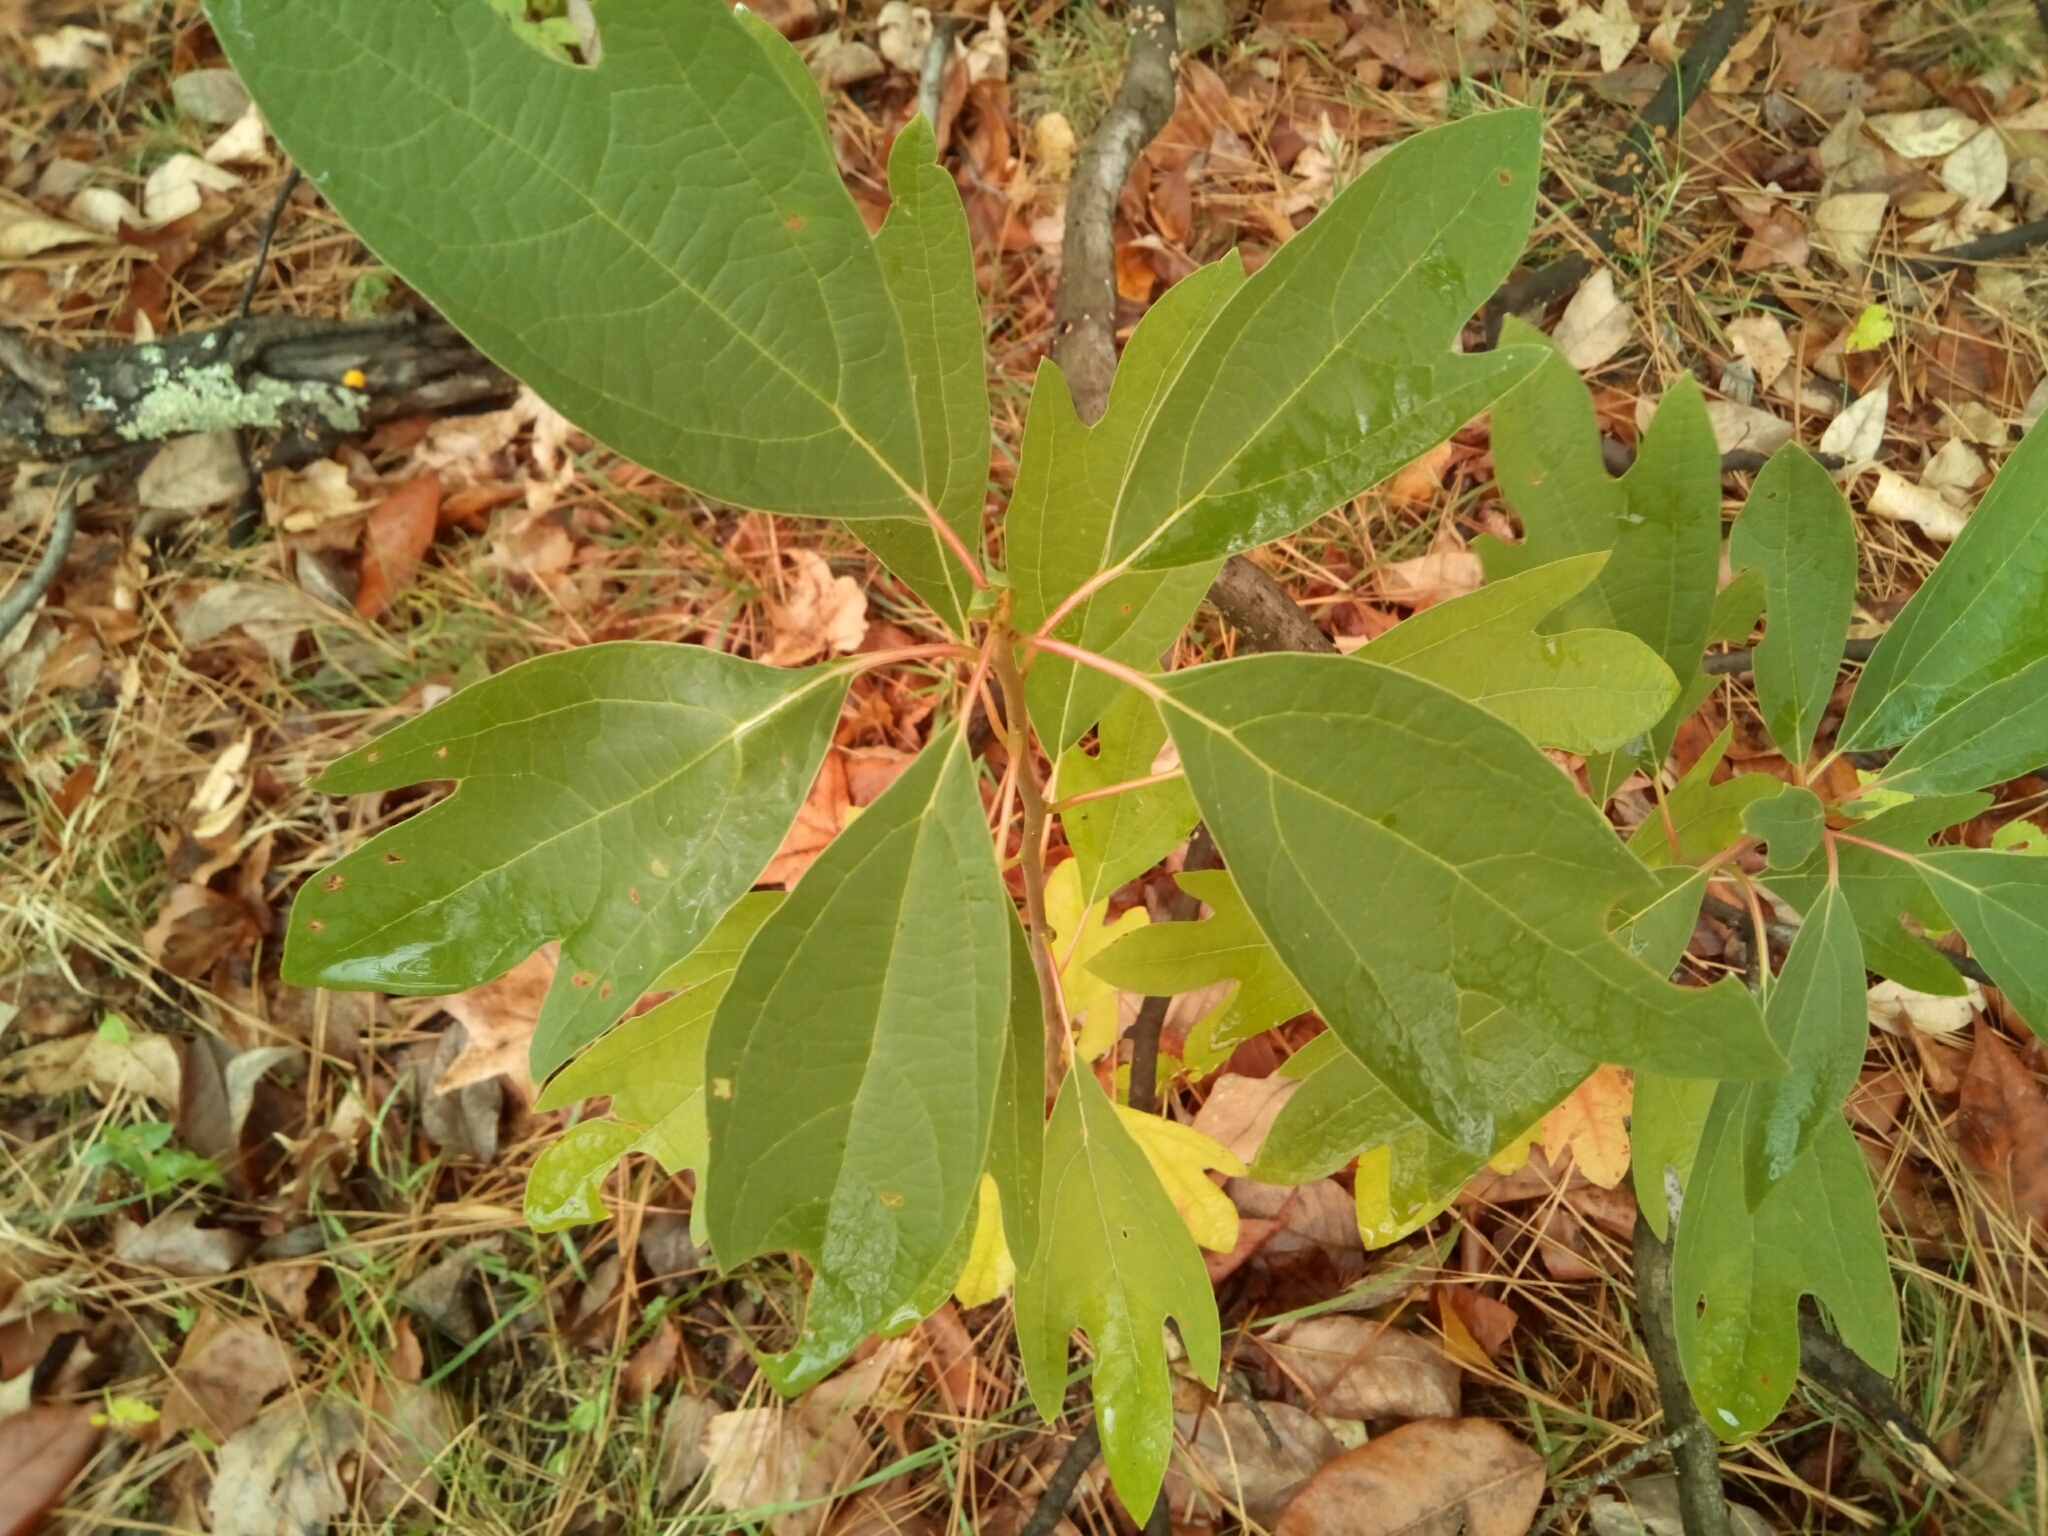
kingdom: Plantae
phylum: Tracheophyta
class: Magnoliopsida
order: Laurales
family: Lauraceae
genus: Sassafras
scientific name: Sassafras albidum
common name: Sassafras
